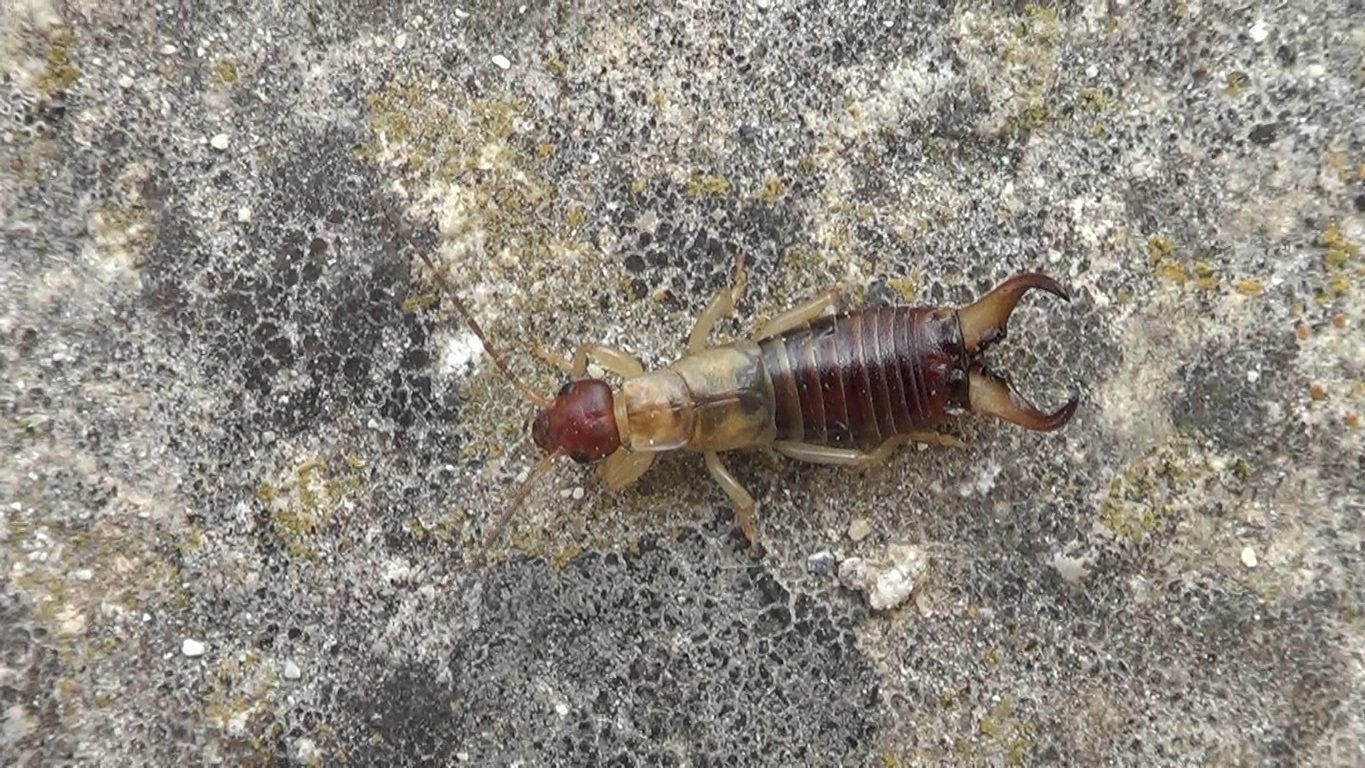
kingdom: Animalia
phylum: Arthropoda
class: Insecta
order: Dermaptera
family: Forficulidae
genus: Forficula
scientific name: Forficula decipiens
